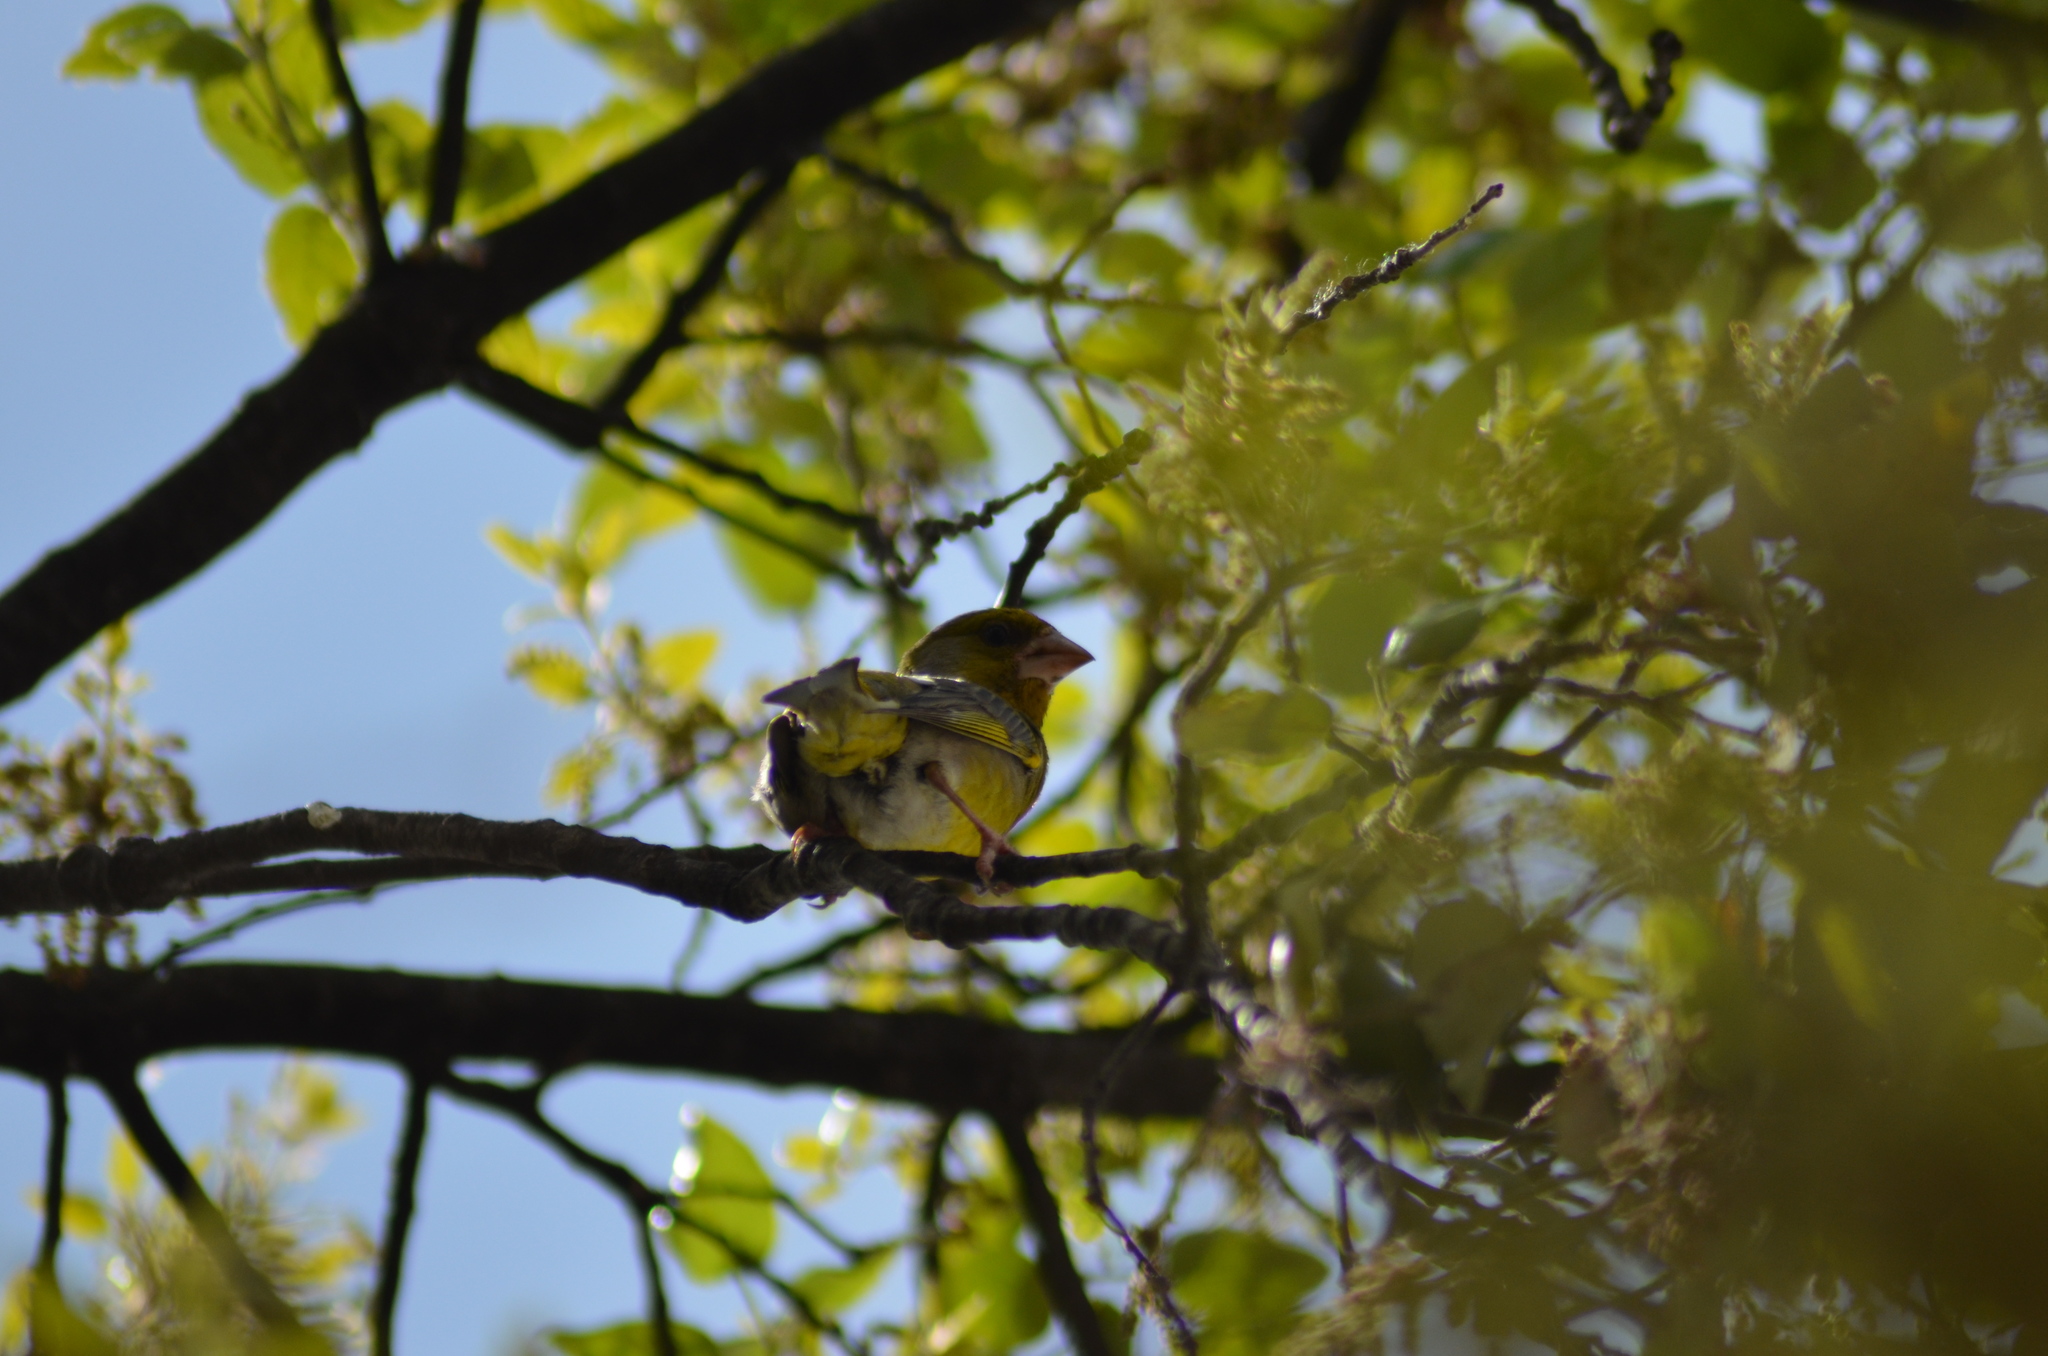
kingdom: Plantae
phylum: Tracheophyta
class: Liliopsida
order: Poales
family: Poaceae
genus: Chloris
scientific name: Chloris chloris
